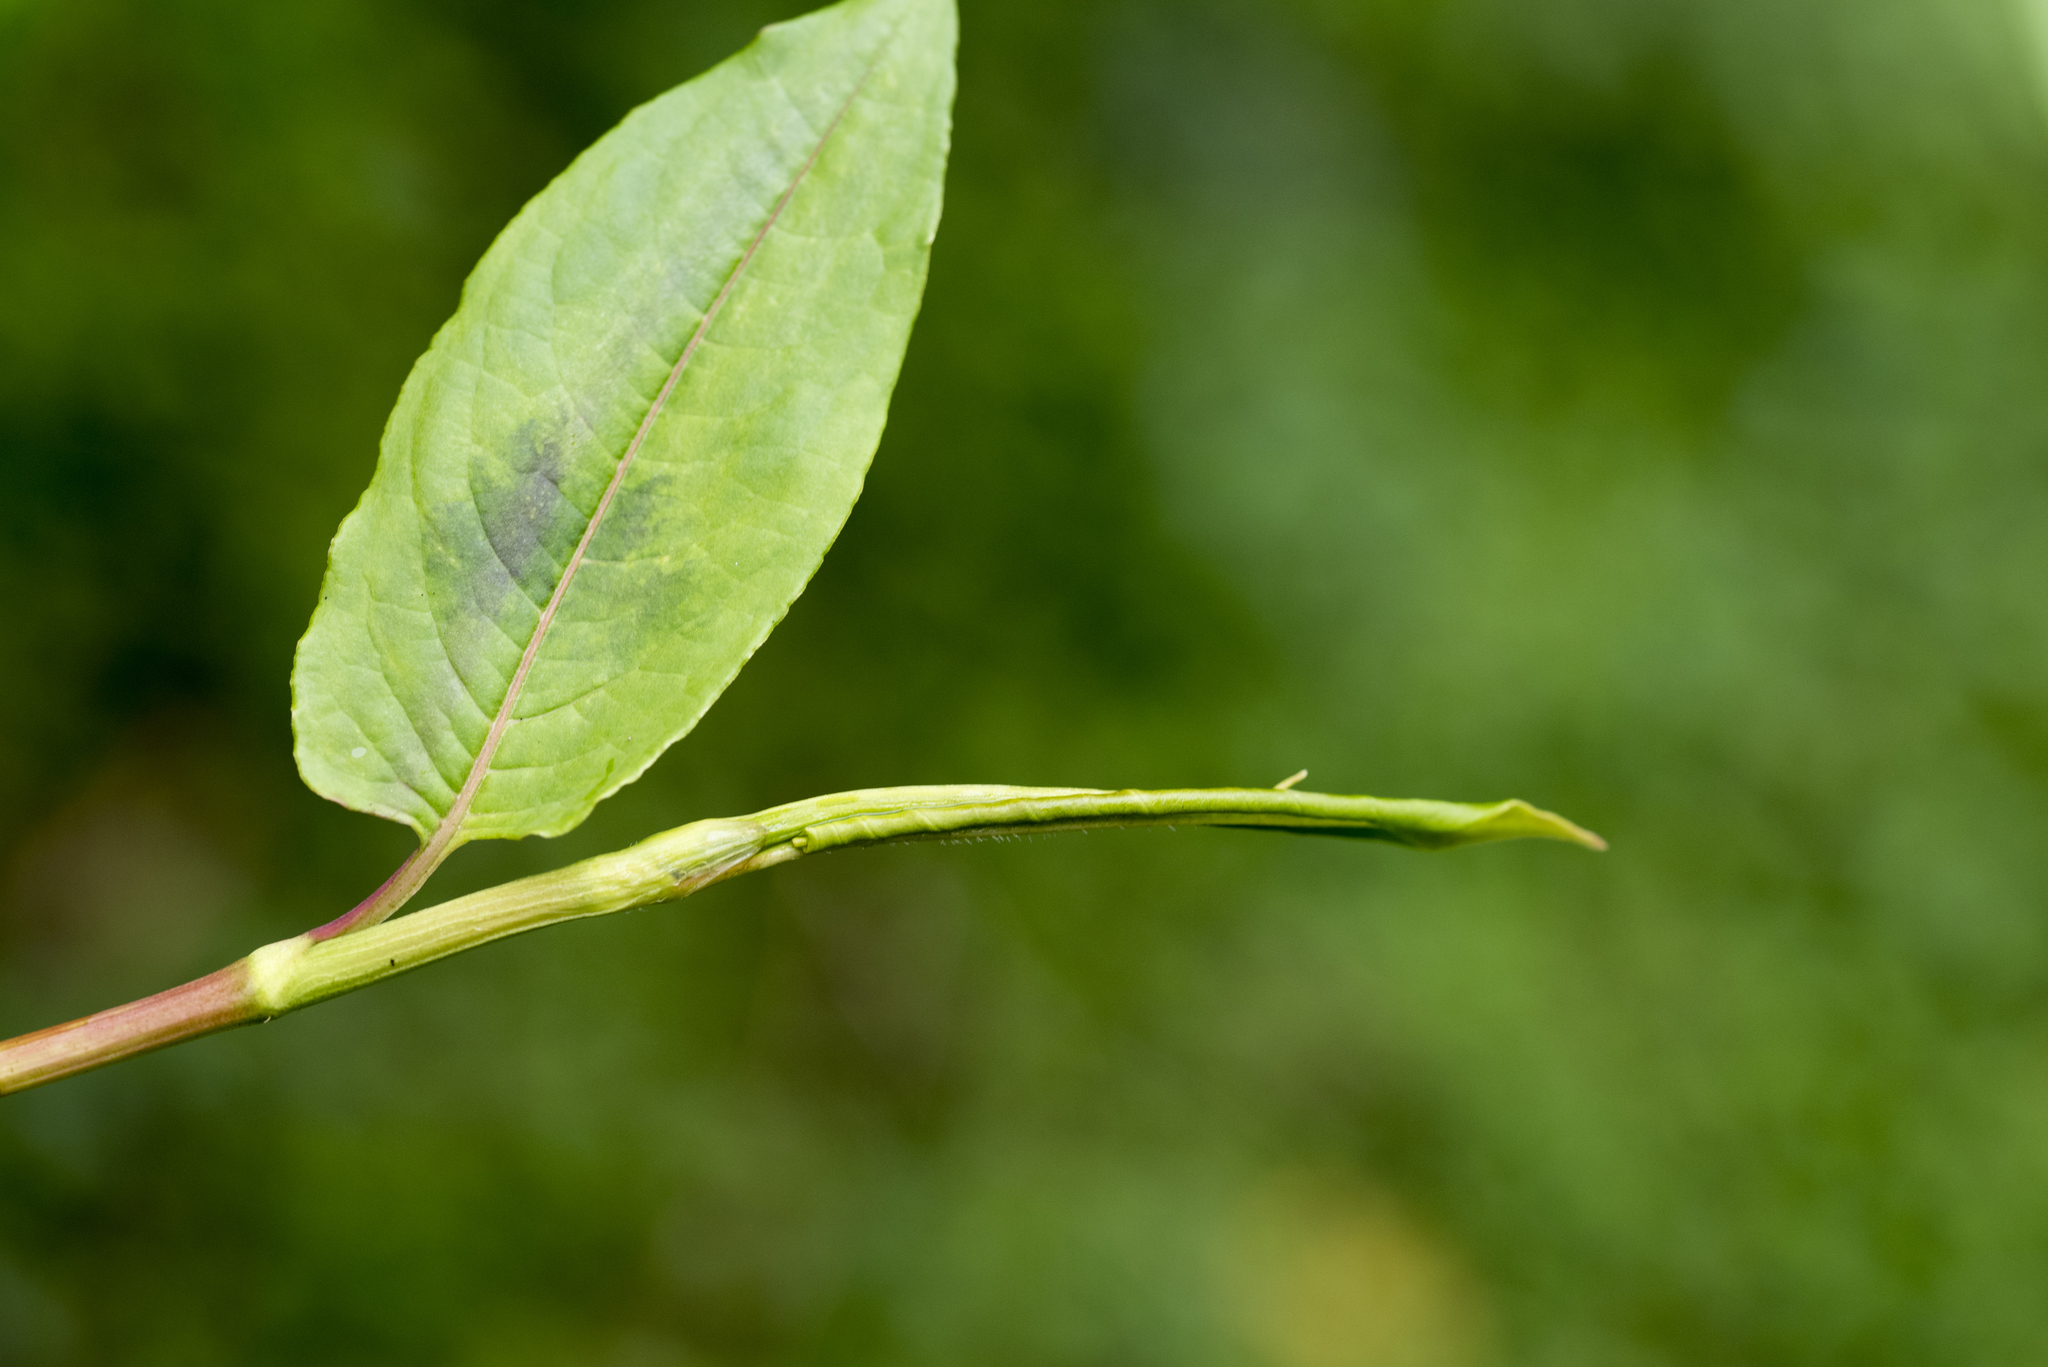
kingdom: Plantae
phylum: Tracheophyta
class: Magnoliopsida
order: Caryophyllales
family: Polygonaceae
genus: Persicaria
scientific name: Persicaria chinensis
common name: Chinese knotweed
